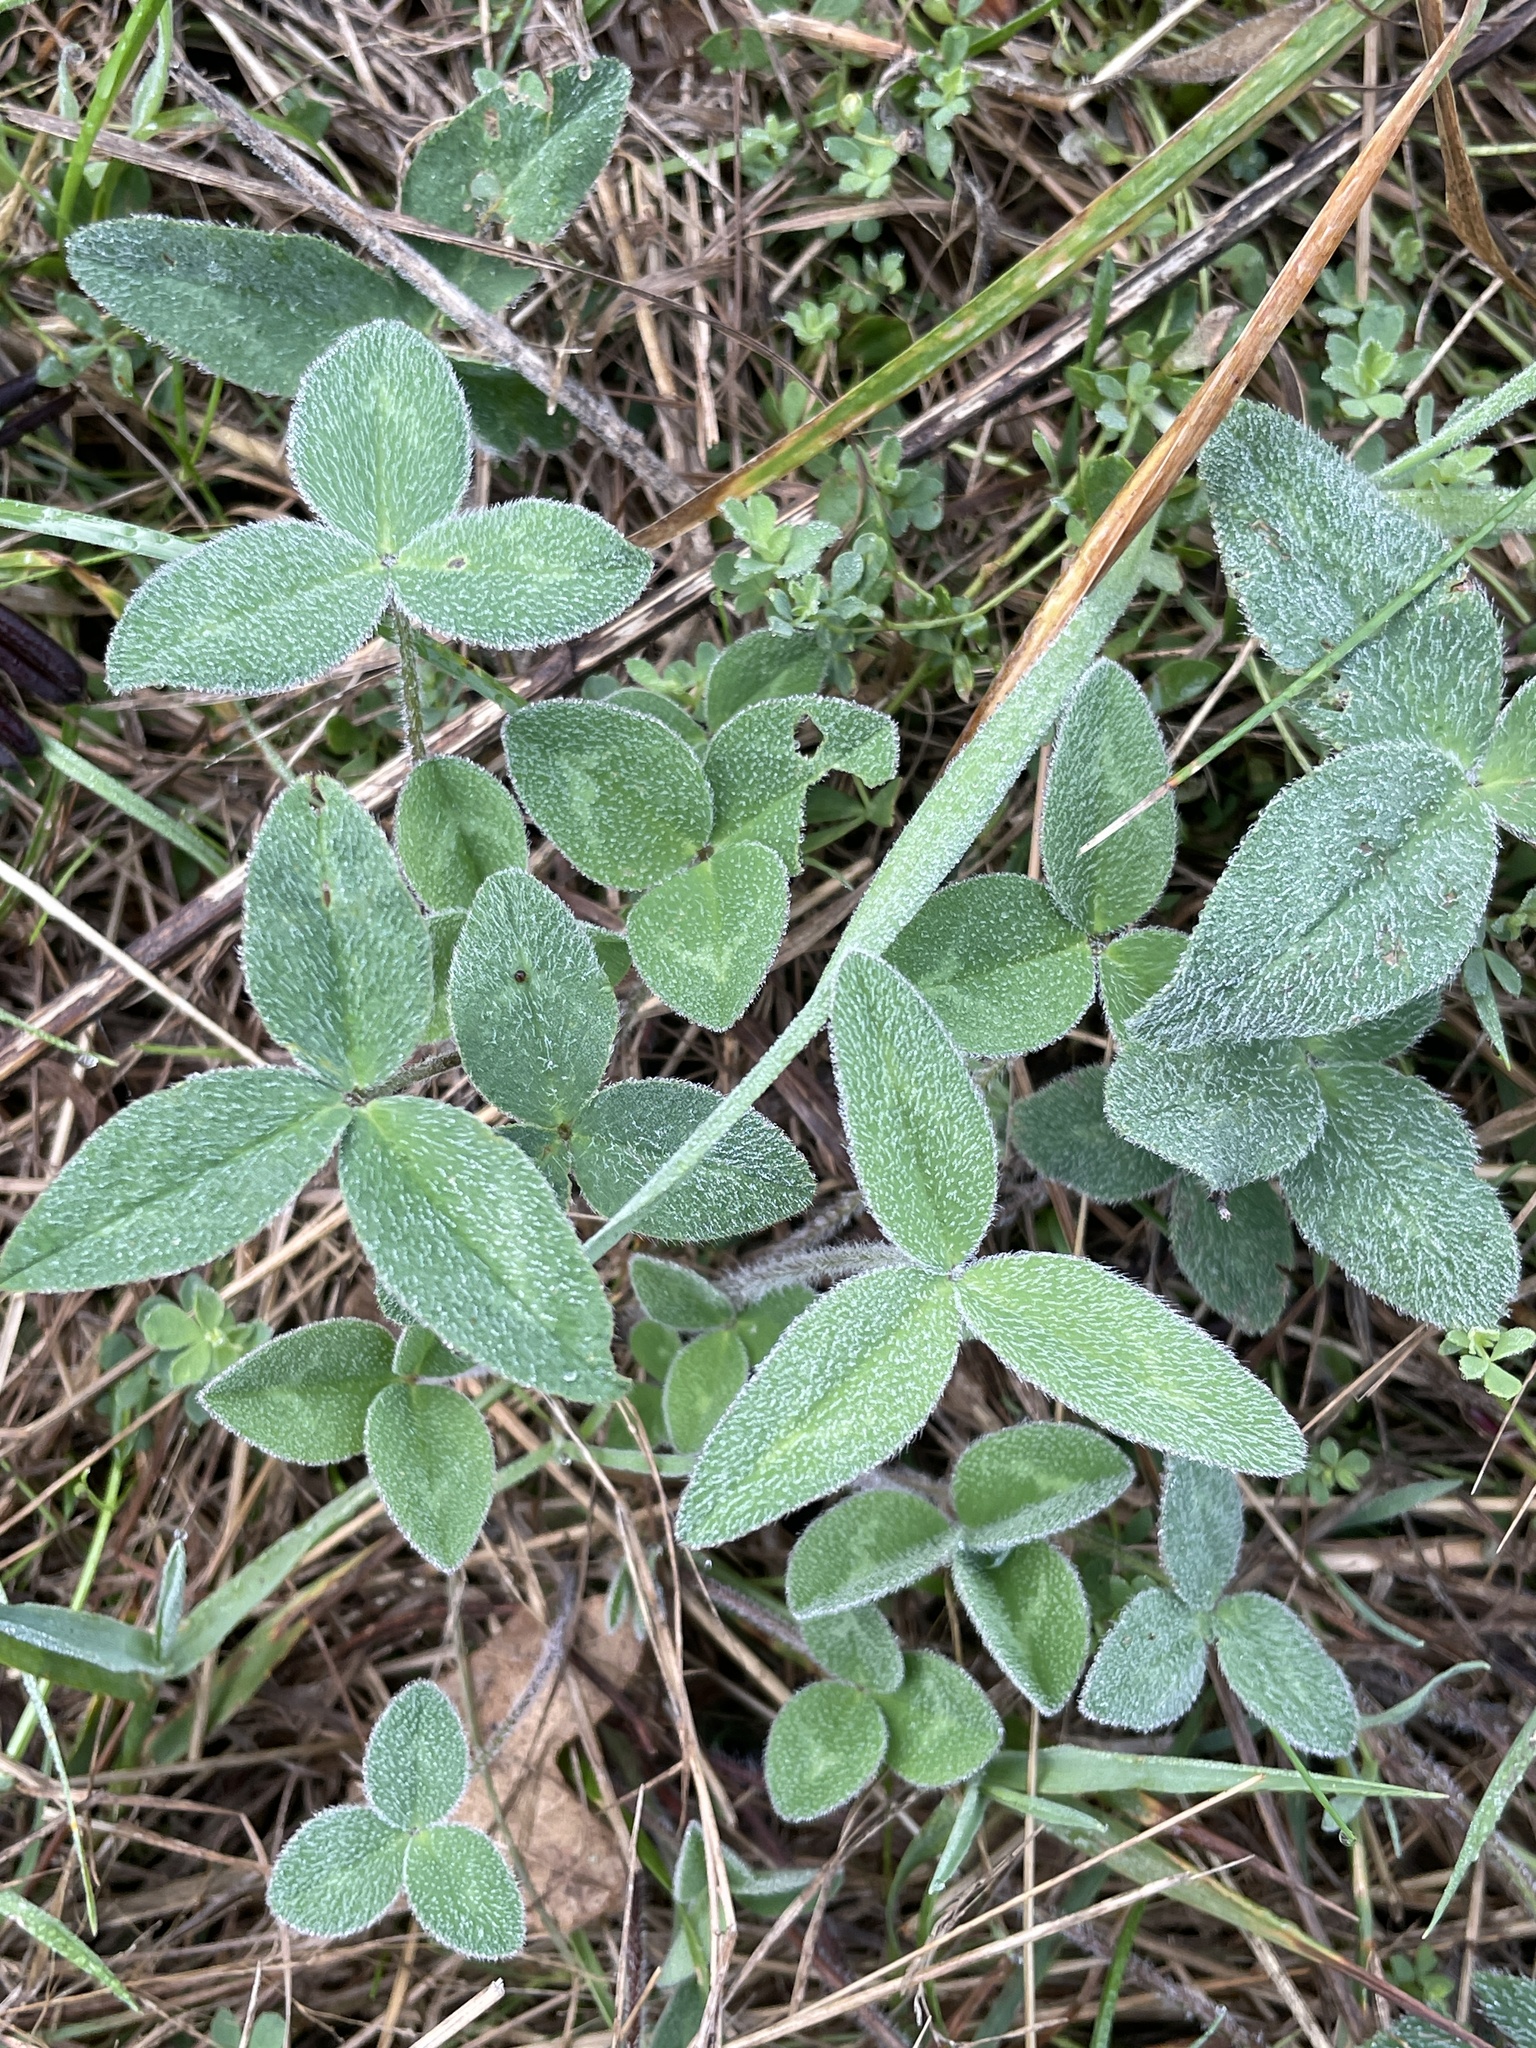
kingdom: Plantae
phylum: Tracheophyta
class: Magnoliopsida
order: Fabales
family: Fabaceae
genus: Trifolium
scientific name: Trifolium pratense
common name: Red clover
